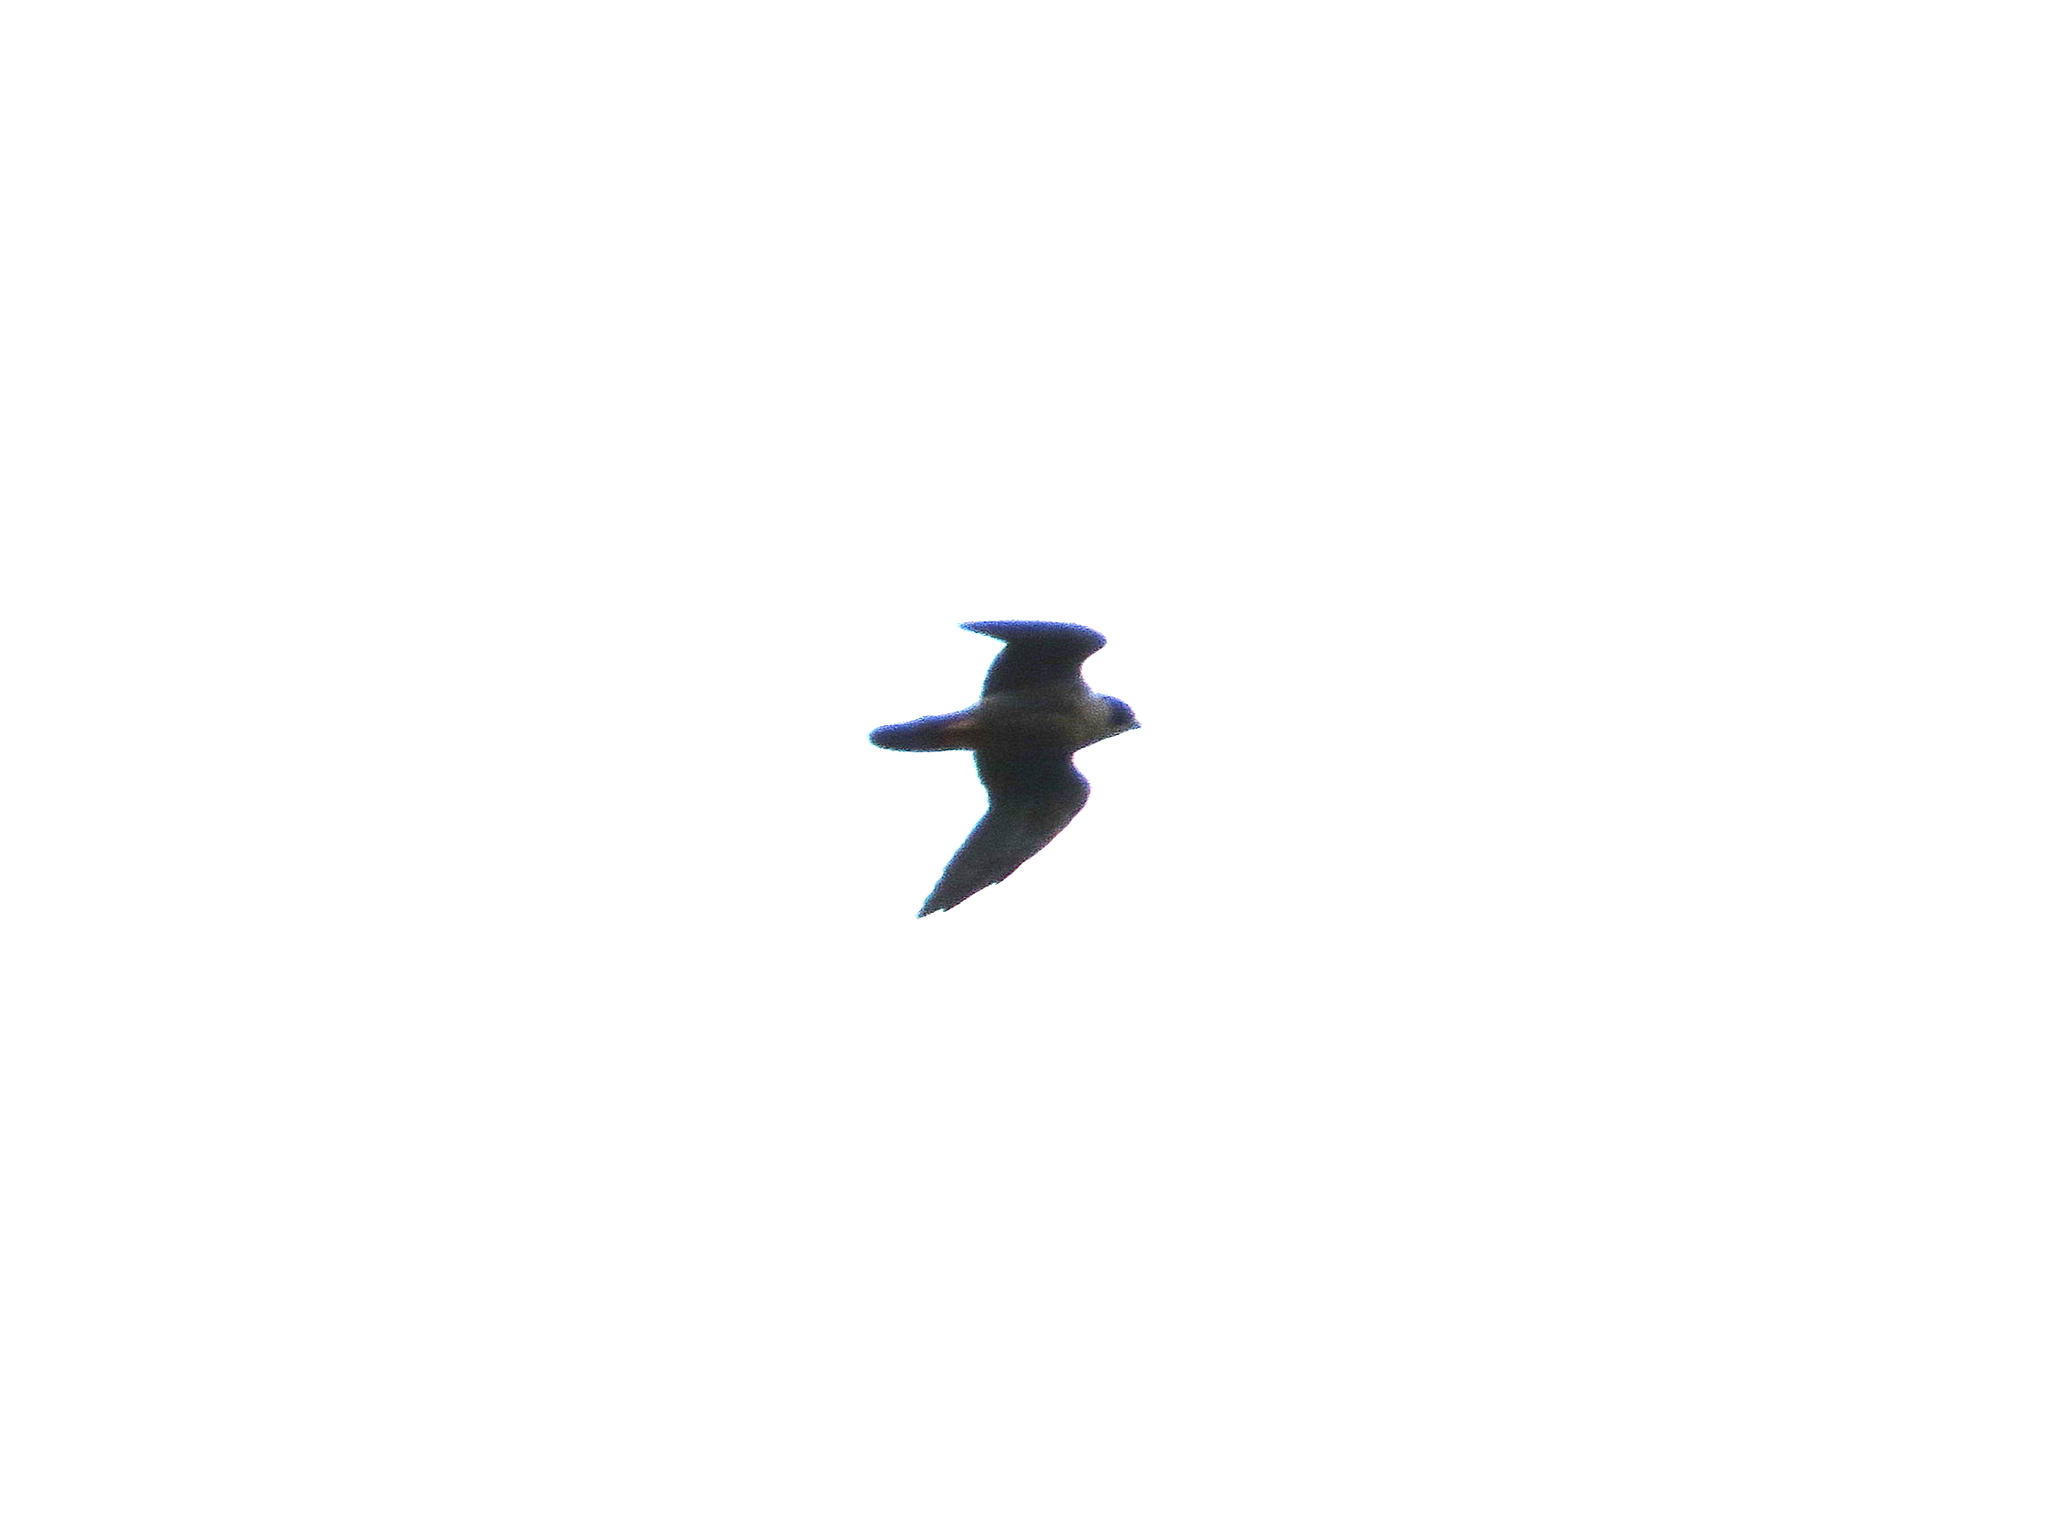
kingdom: Animalia
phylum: Chordata
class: Aves
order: Falconiformes
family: Falconidae
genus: Falco
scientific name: Falco rufigularis
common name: Bat falcon
